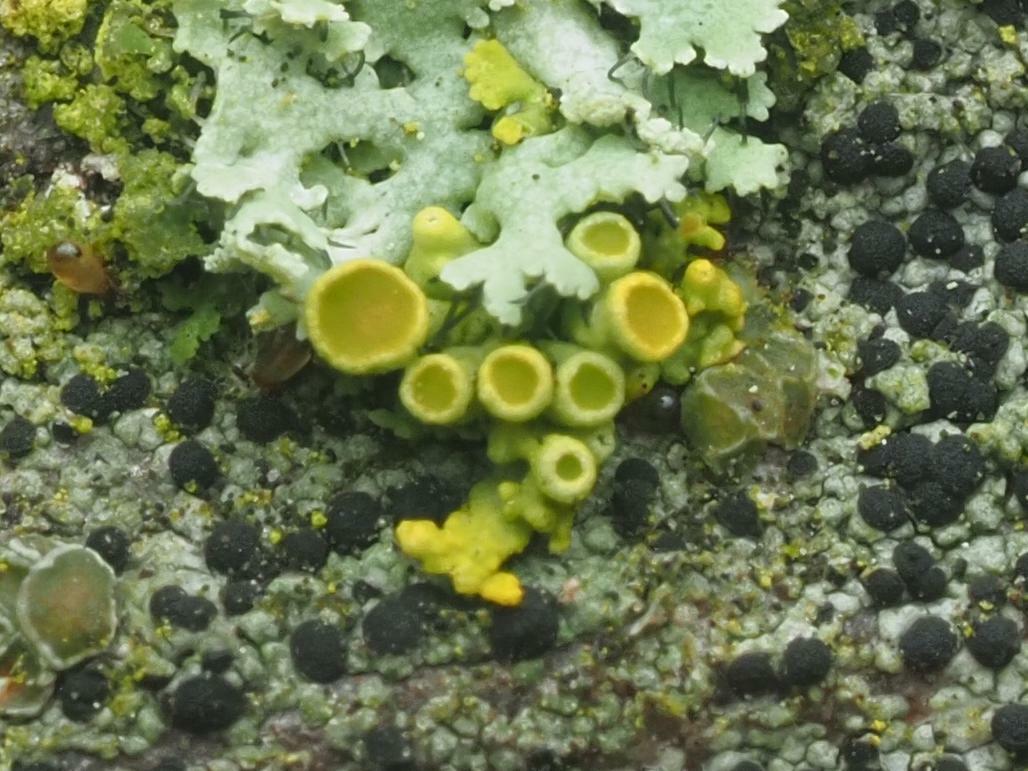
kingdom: Fungi
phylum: Ascomycota
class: Lecanoromycetes
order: Teloschistales
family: Teloschistaceae
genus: Polycauliona
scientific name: Polycauliona polycarpa
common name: Pin-cushion sunburst lichen
